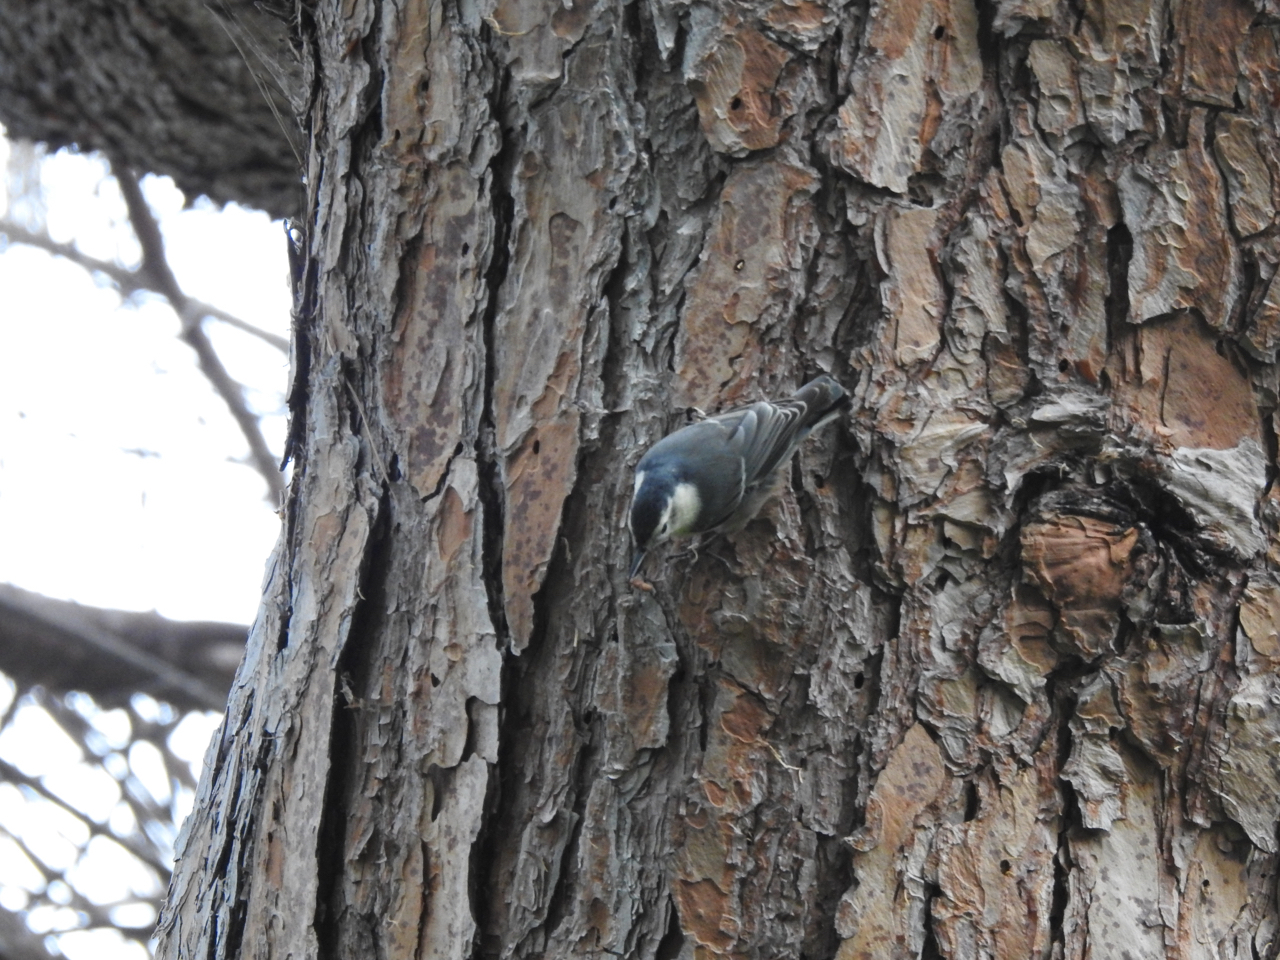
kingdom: Animalia
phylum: Chordata
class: Aves
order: Passeriformes
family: Sittidae
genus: Sitta
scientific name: Sitta carolinensis
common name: White-breasted nuthatch
